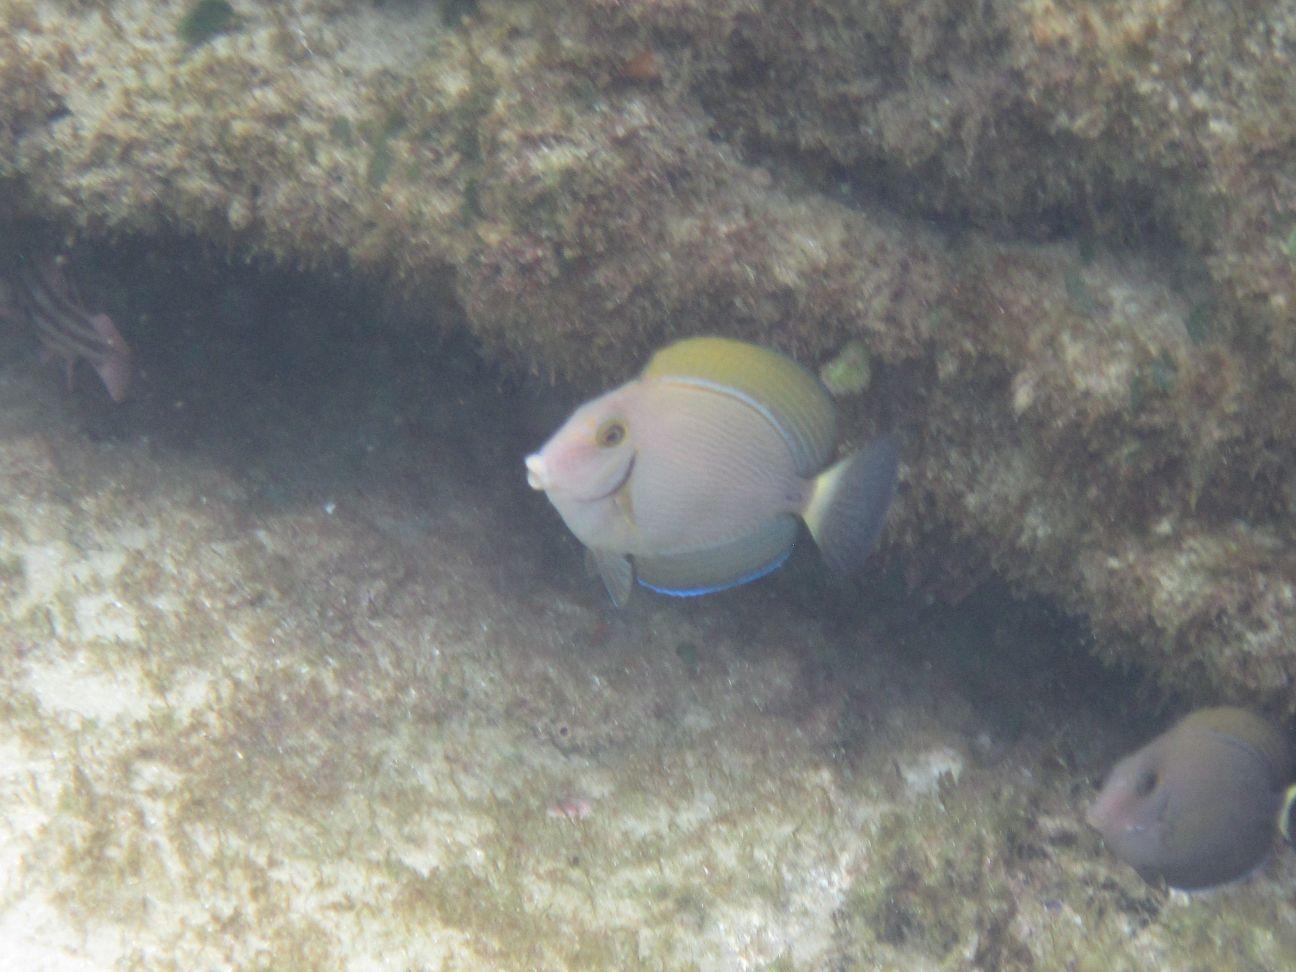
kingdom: Animalia
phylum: Chordata
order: Perciformes
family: Acanthuridae
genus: Acanthurus
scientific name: Acanthurus dussumieri
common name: Dussumier's surgeonfish
